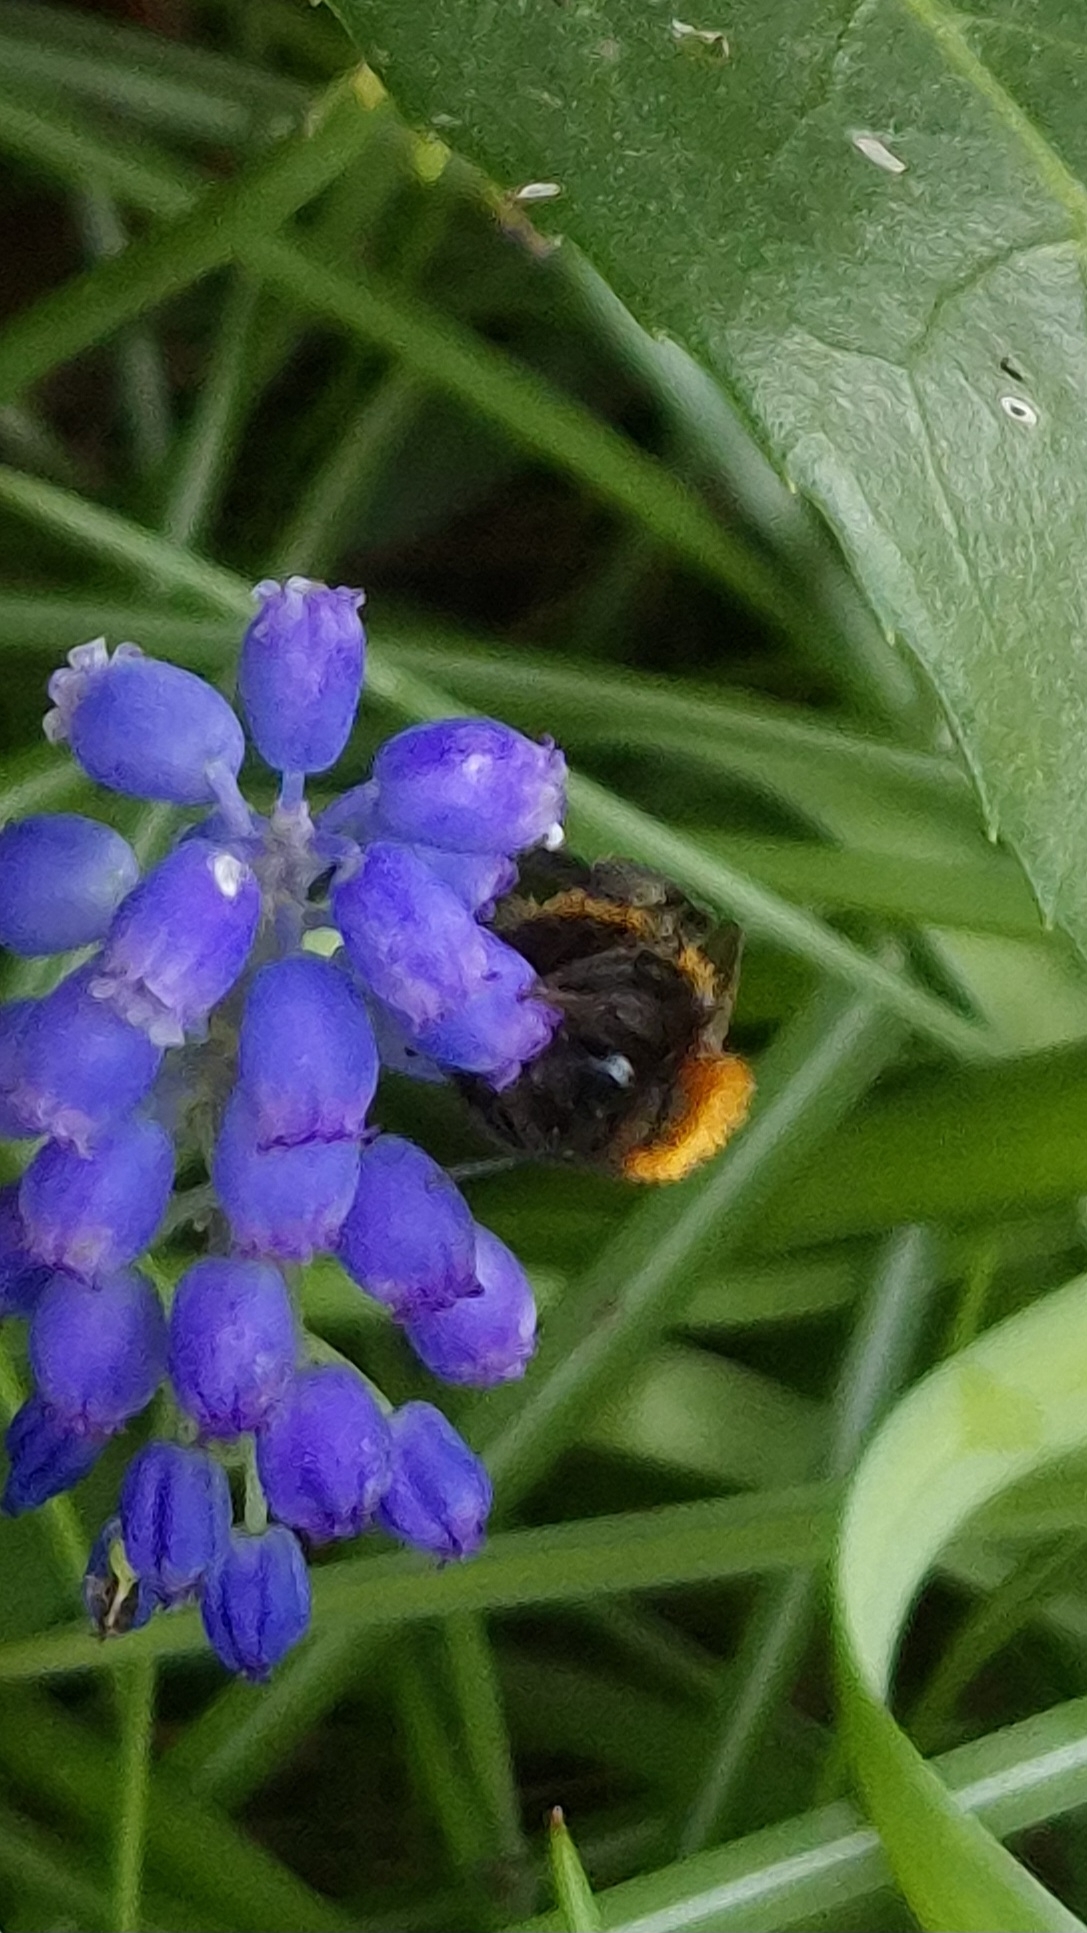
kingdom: Animalia
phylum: Arthropoda
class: Insecta
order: Hymenoptera
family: Andrenidae
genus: Andrena
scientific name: Andrena fulva
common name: Tawny mining bee
